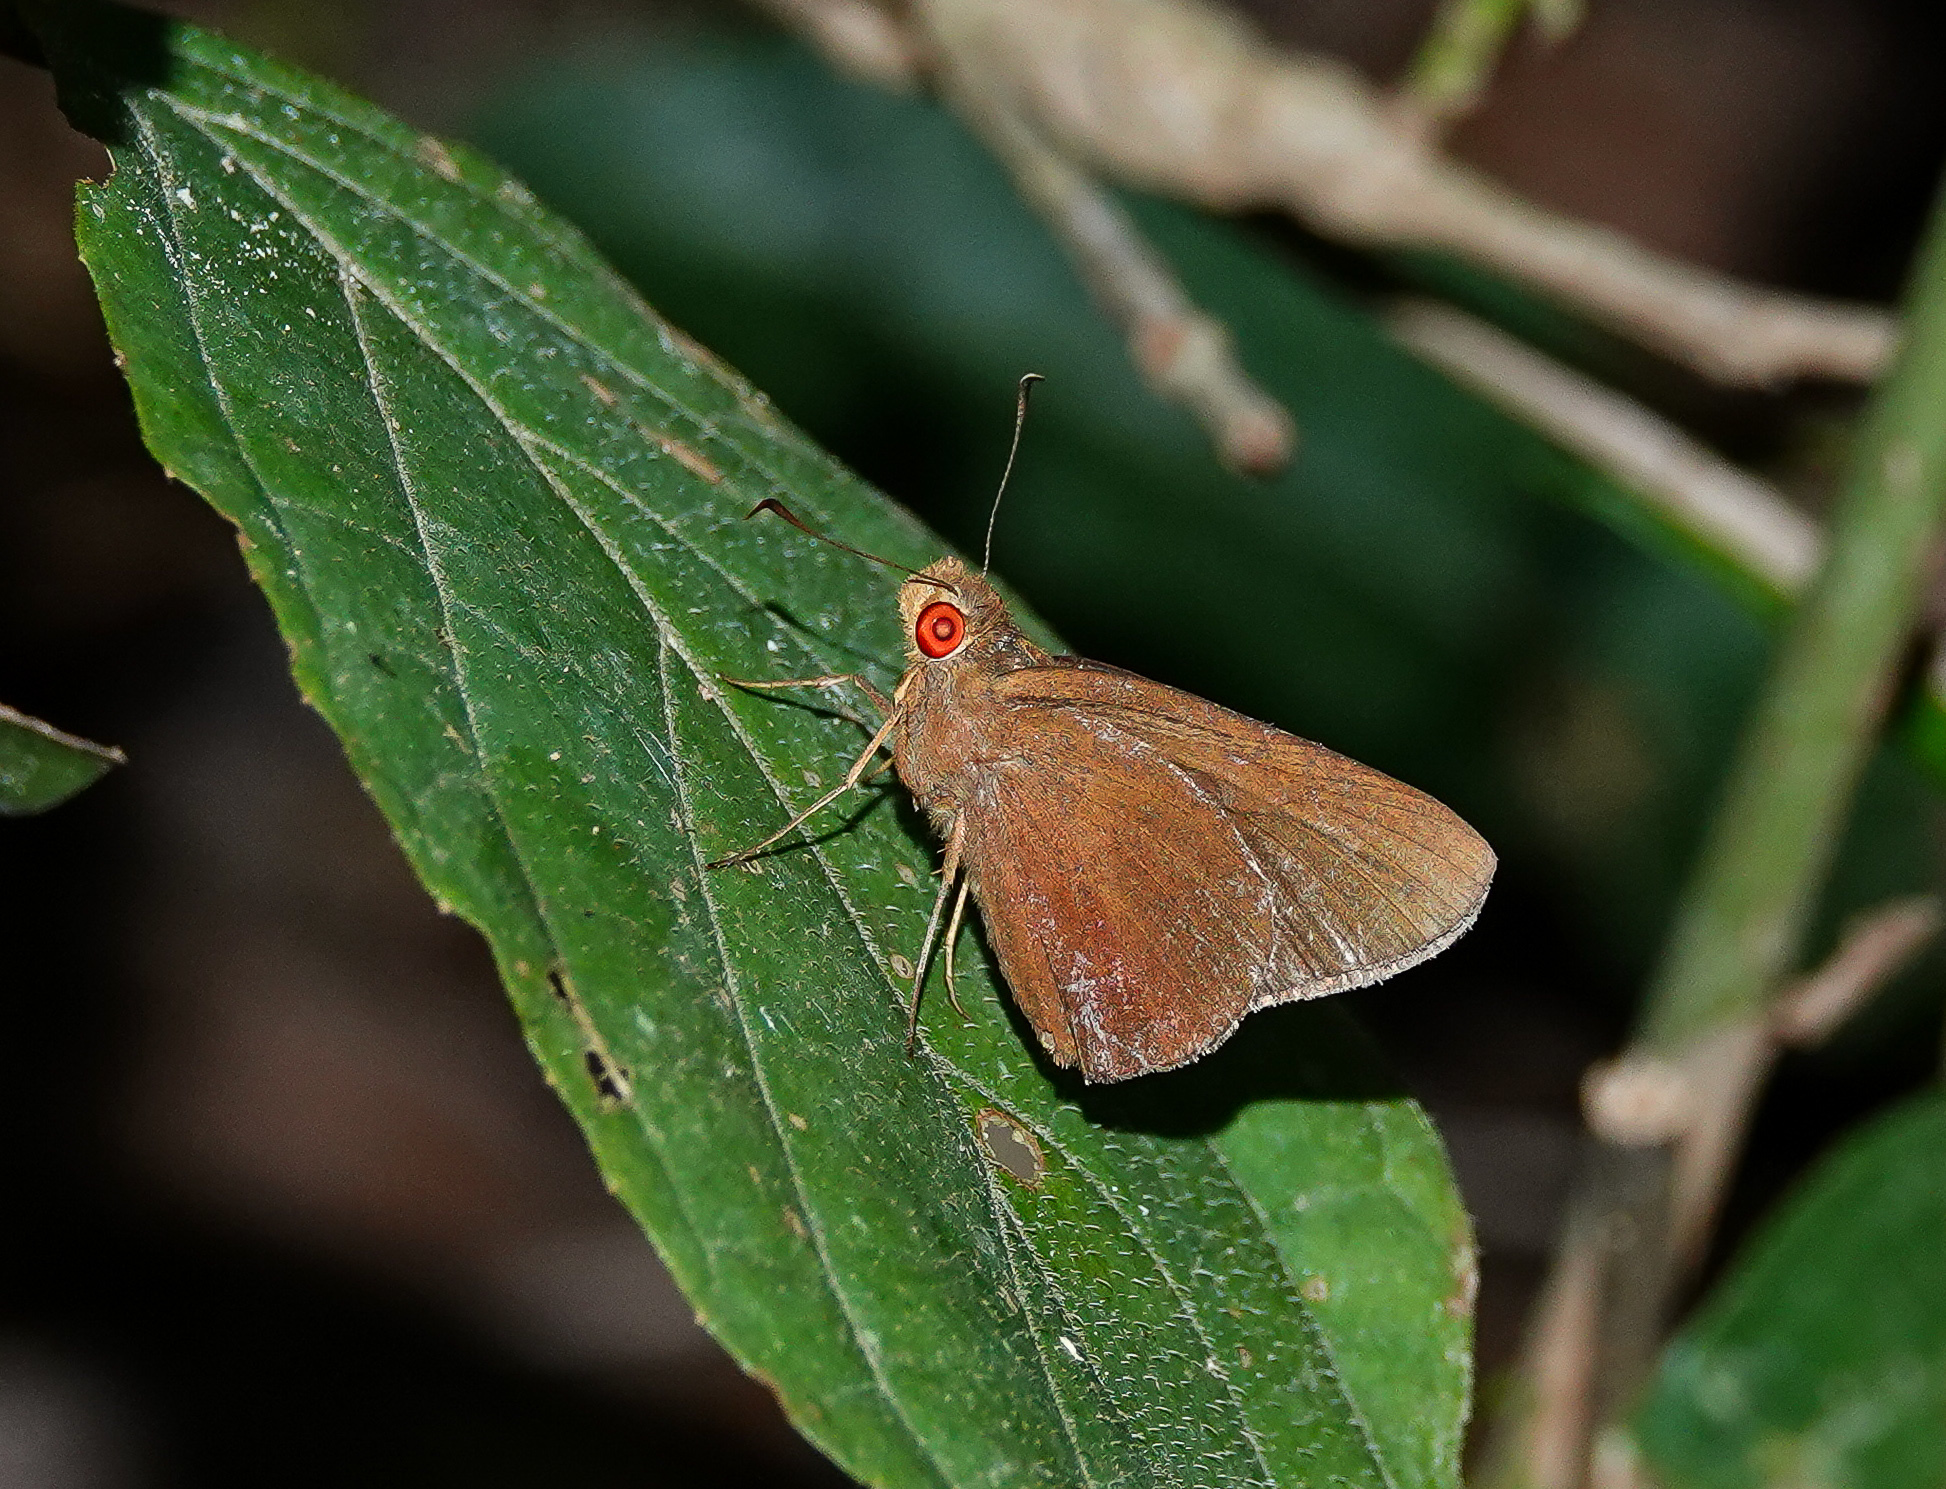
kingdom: Animalia
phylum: Arthropoda
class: Insecta
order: Lepidoptera
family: Hesperiidae
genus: Matapa
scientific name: Matapa aria
